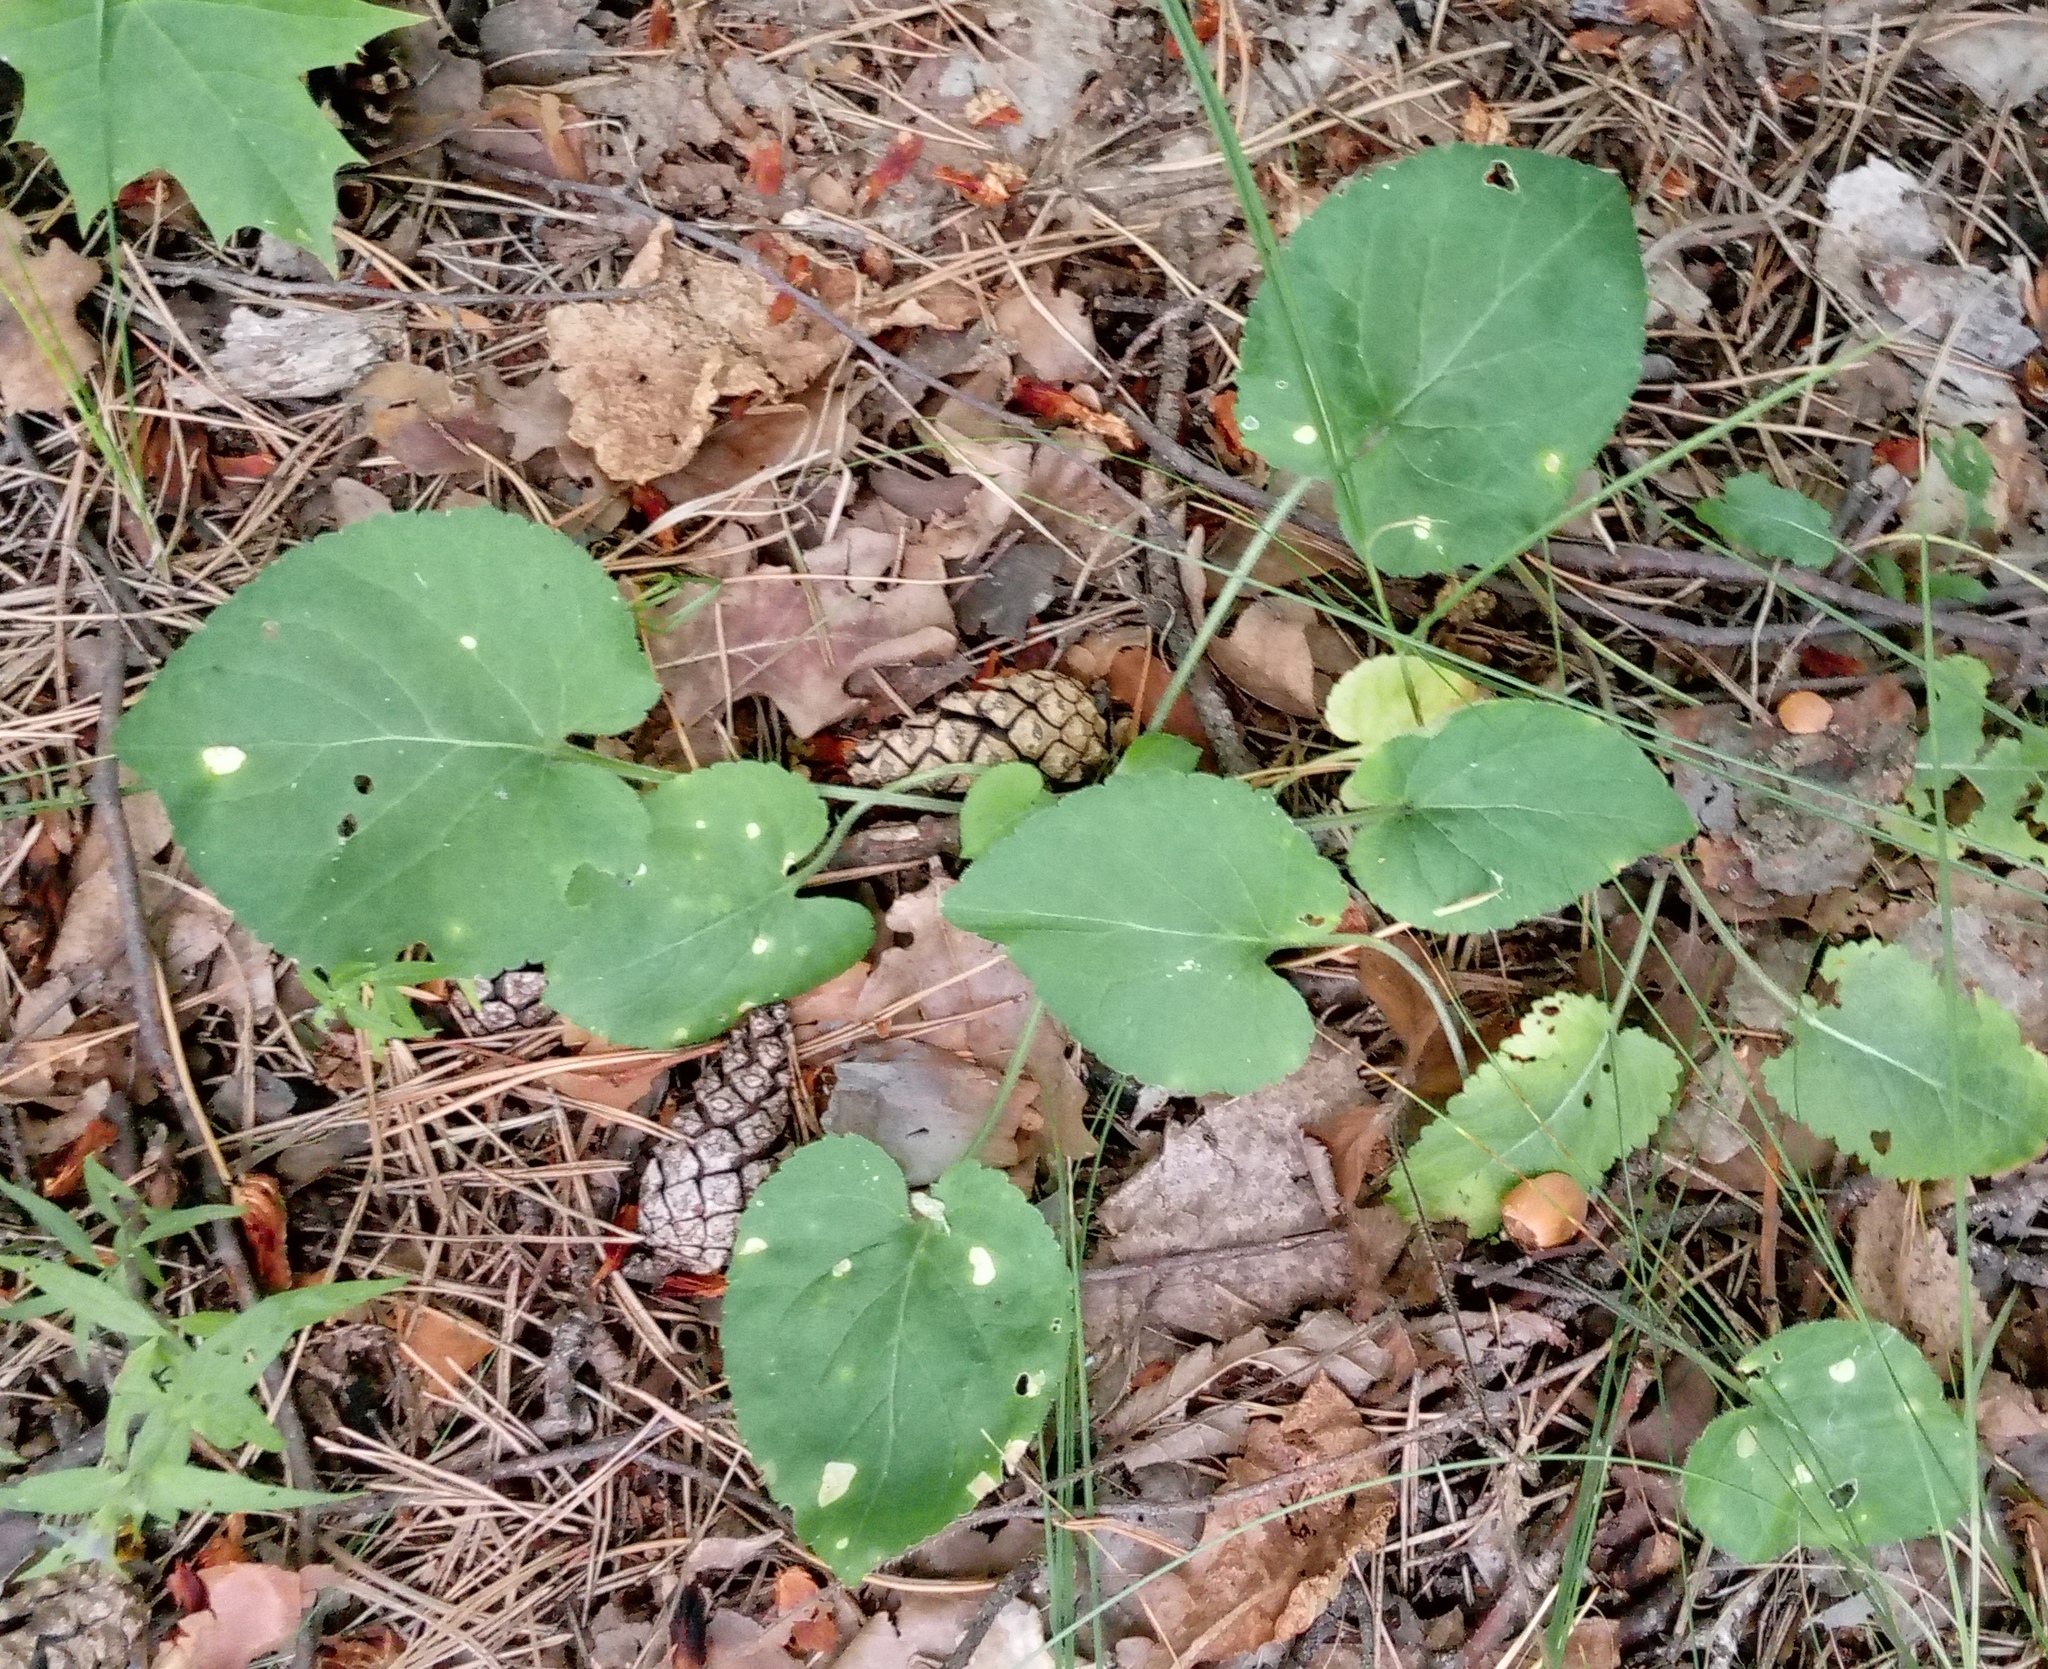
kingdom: Plantae
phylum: Tracheophyta
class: Magnoliopsida
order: Malpighiales
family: Violaceae
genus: Viola
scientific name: Viola collina
